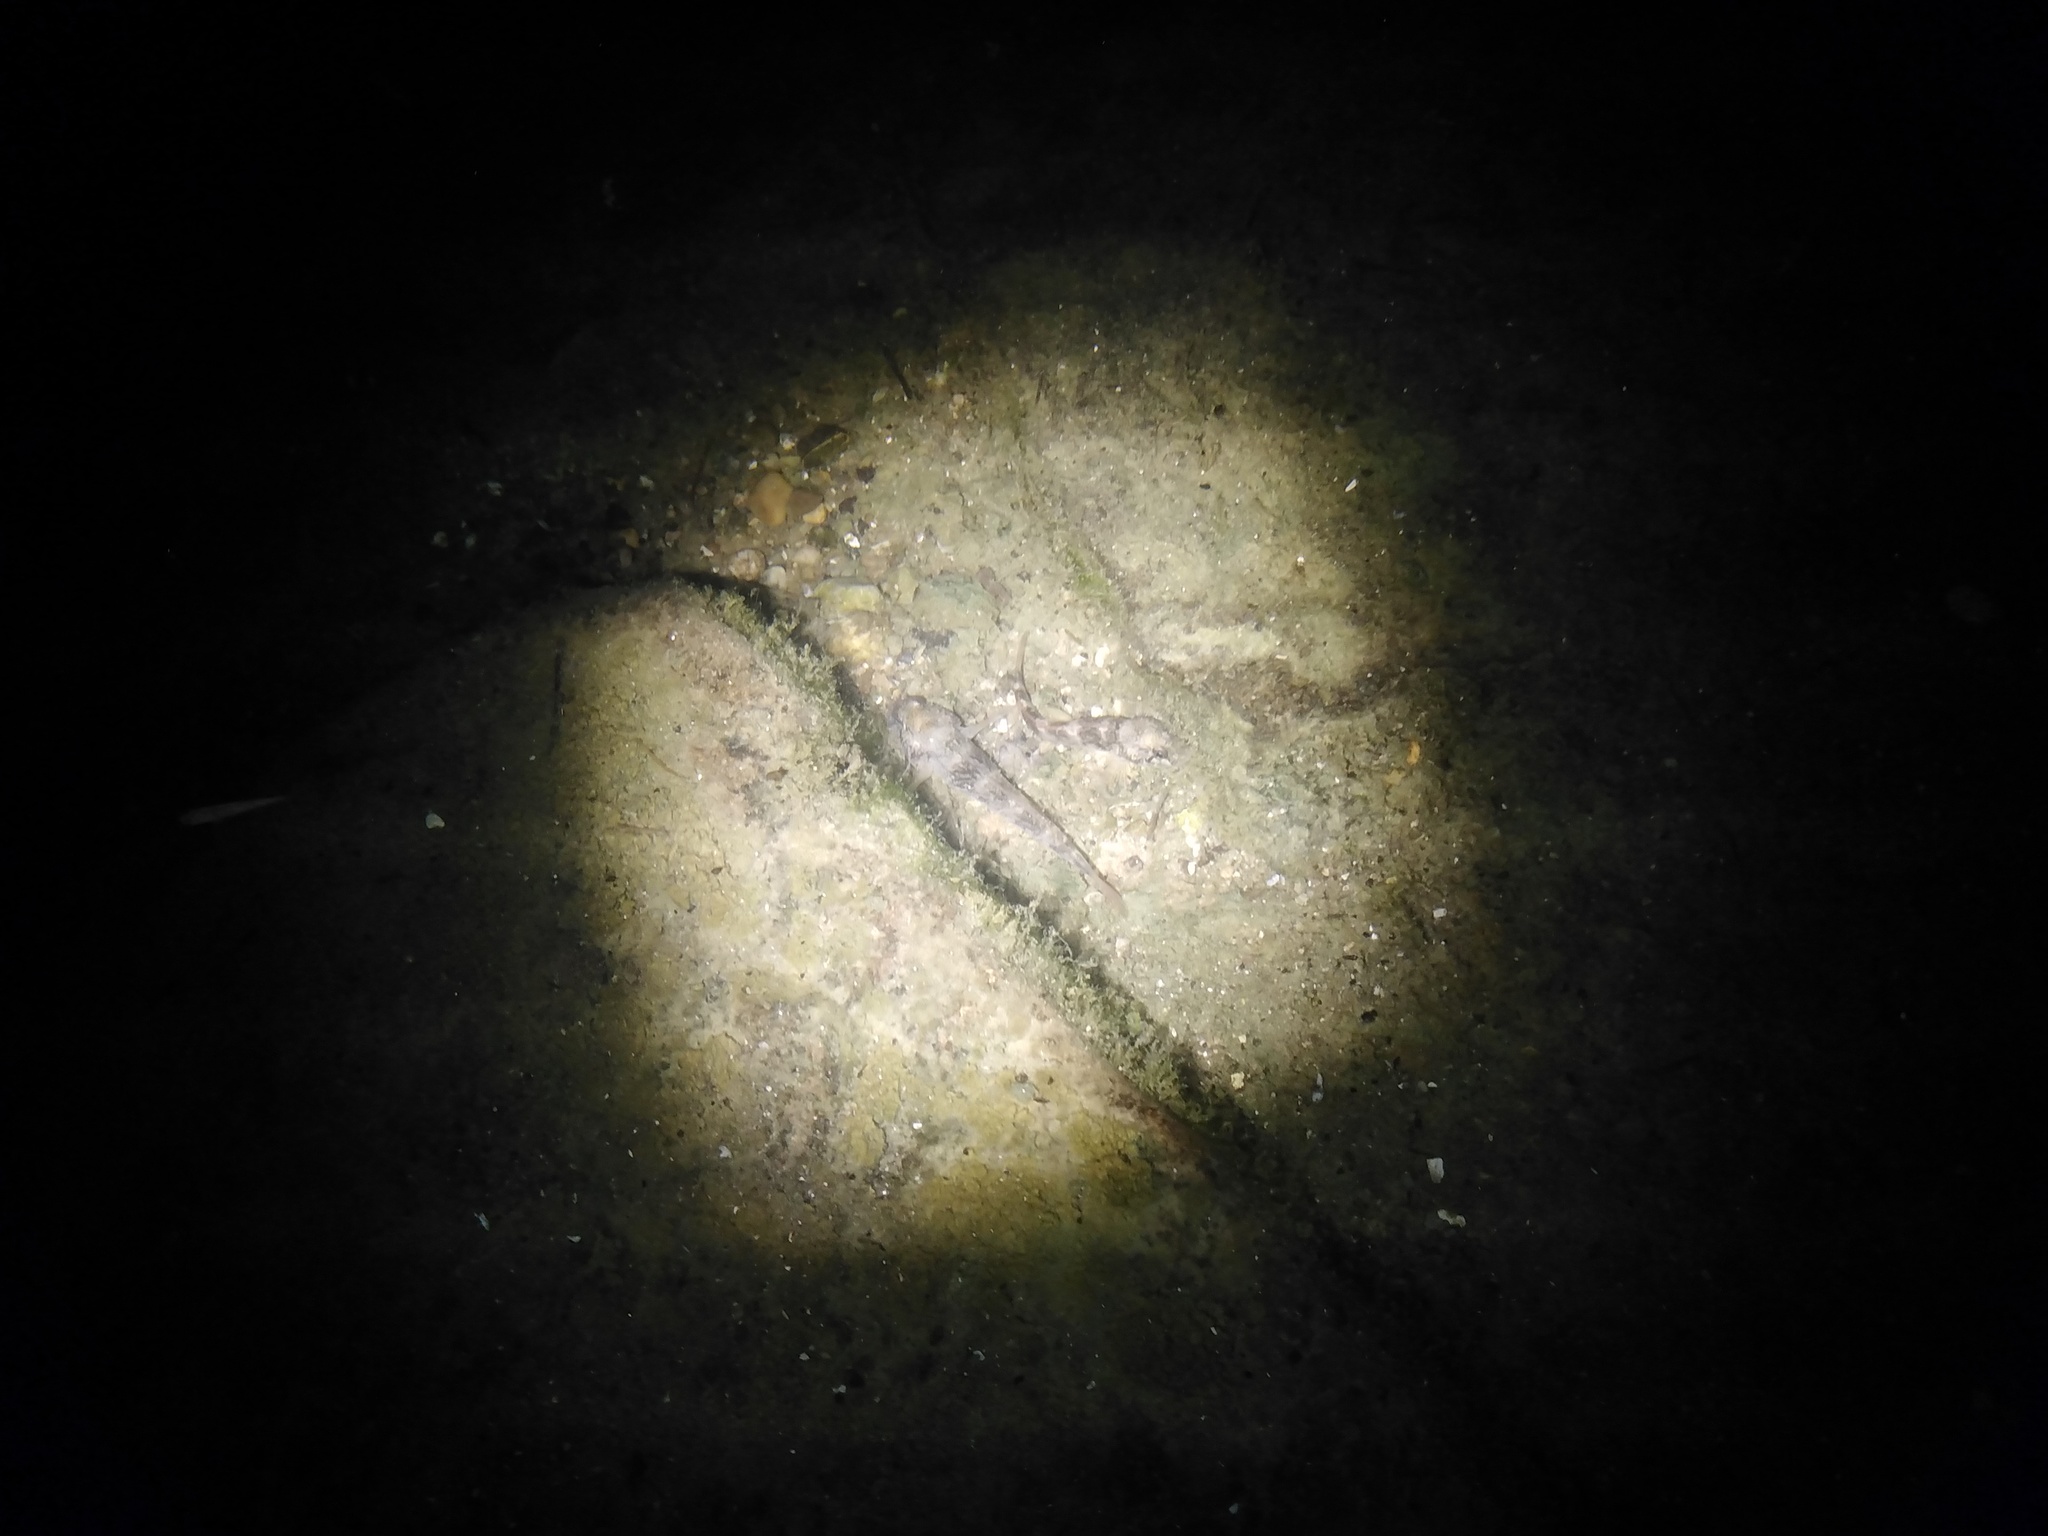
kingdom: Animalia
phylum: Chordata
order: Perciformes
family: Gobiidae
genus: Ponticola
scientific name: Ponticola kessleri
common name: Bighead goby
